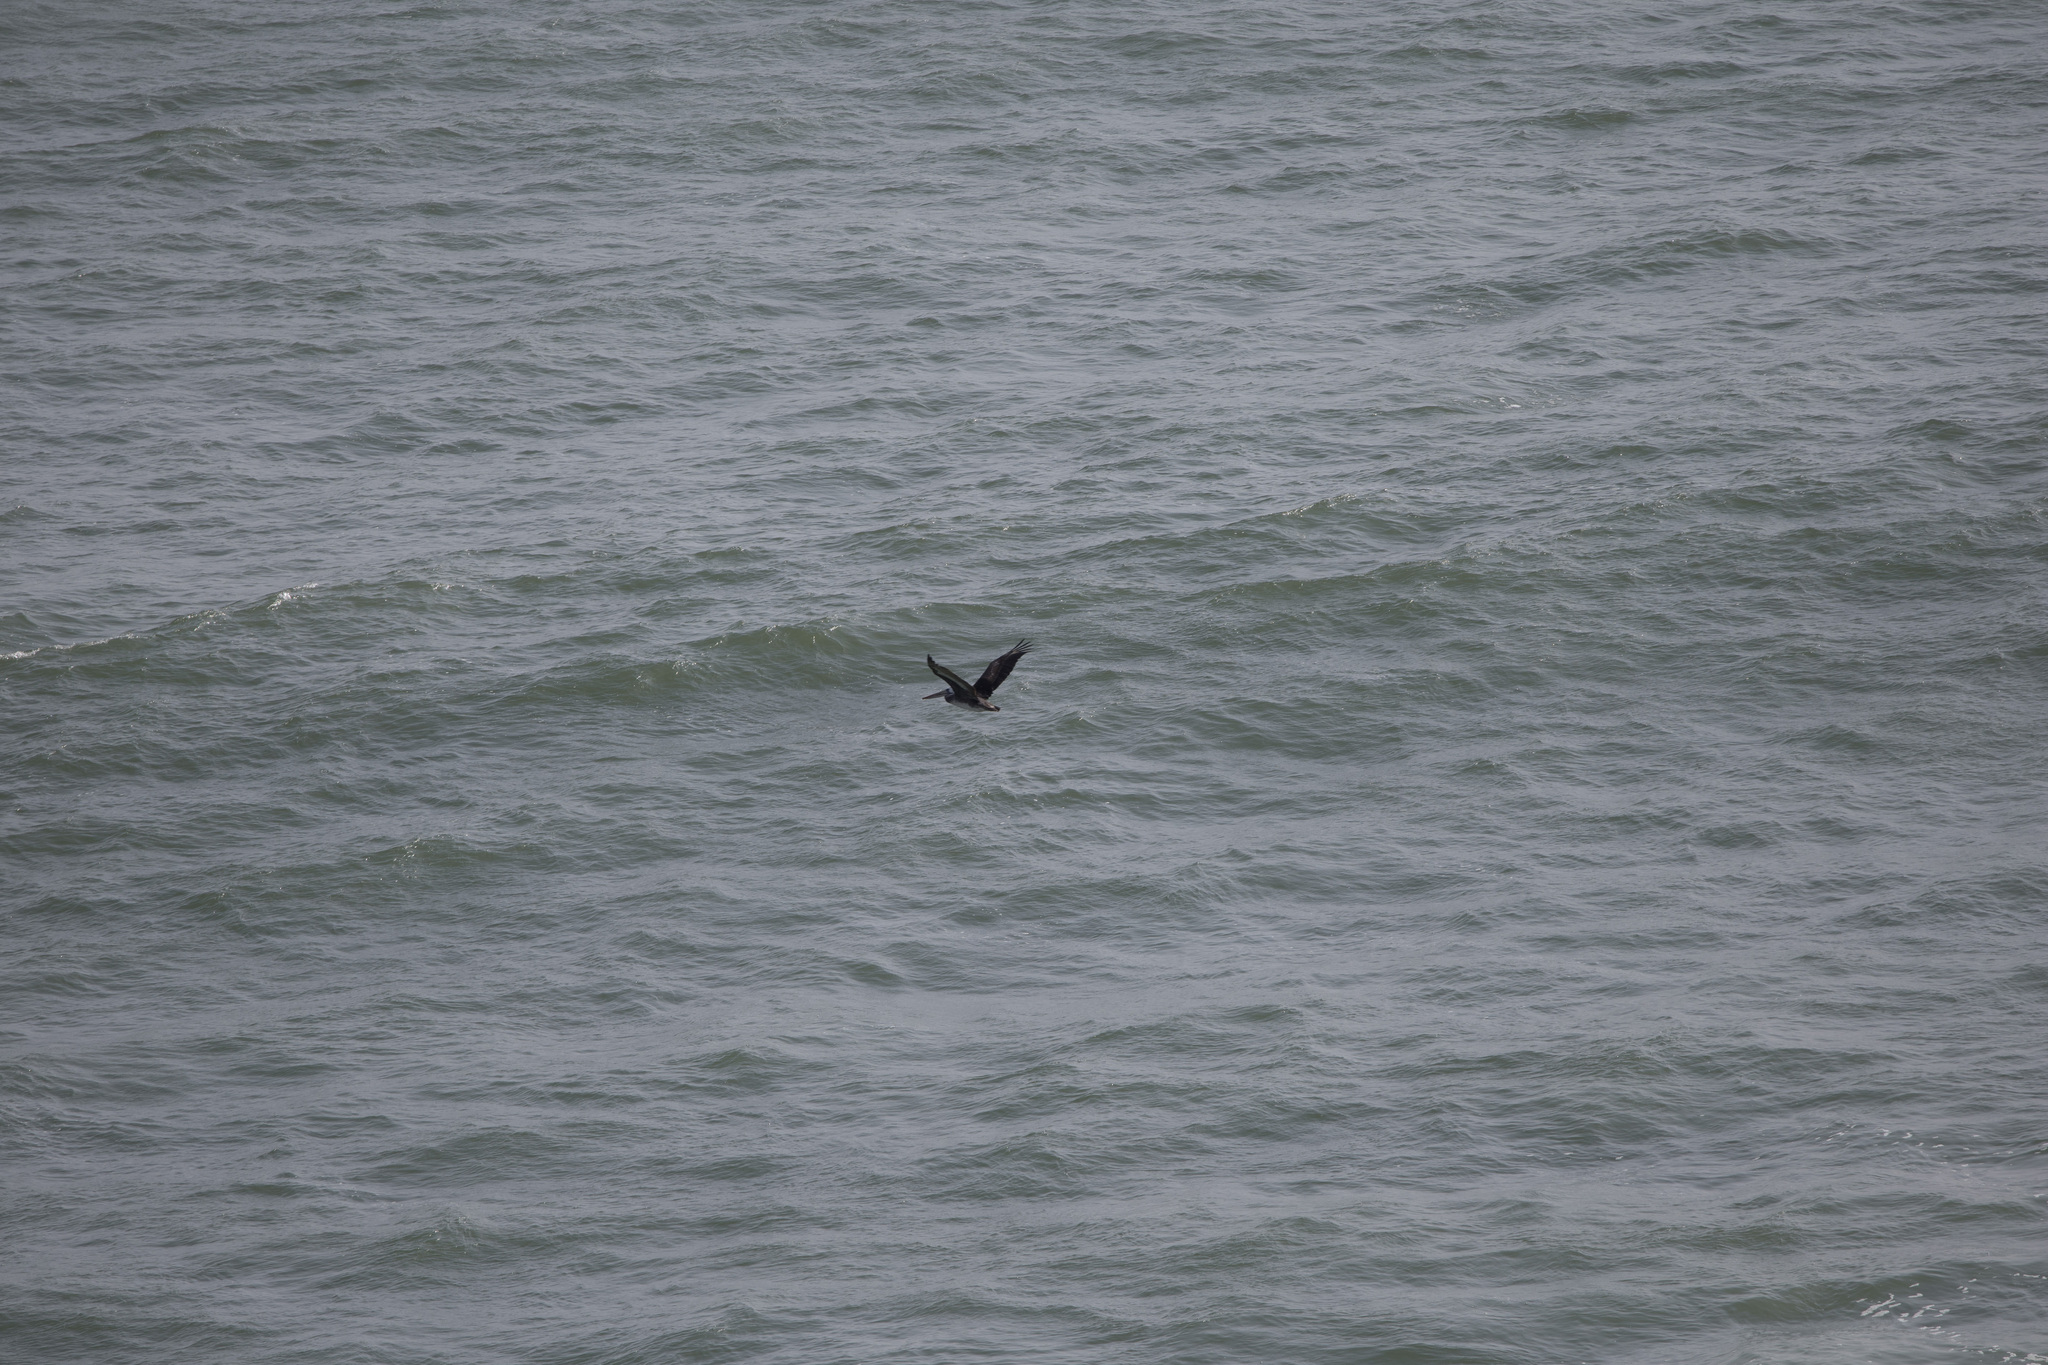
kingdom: Animalia
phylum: Chordata
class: Aves
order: Pelecaniformes
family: Pelecanidae
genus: Pelecanus
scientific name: Pelecanus thagus
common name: Peruvian pelican
